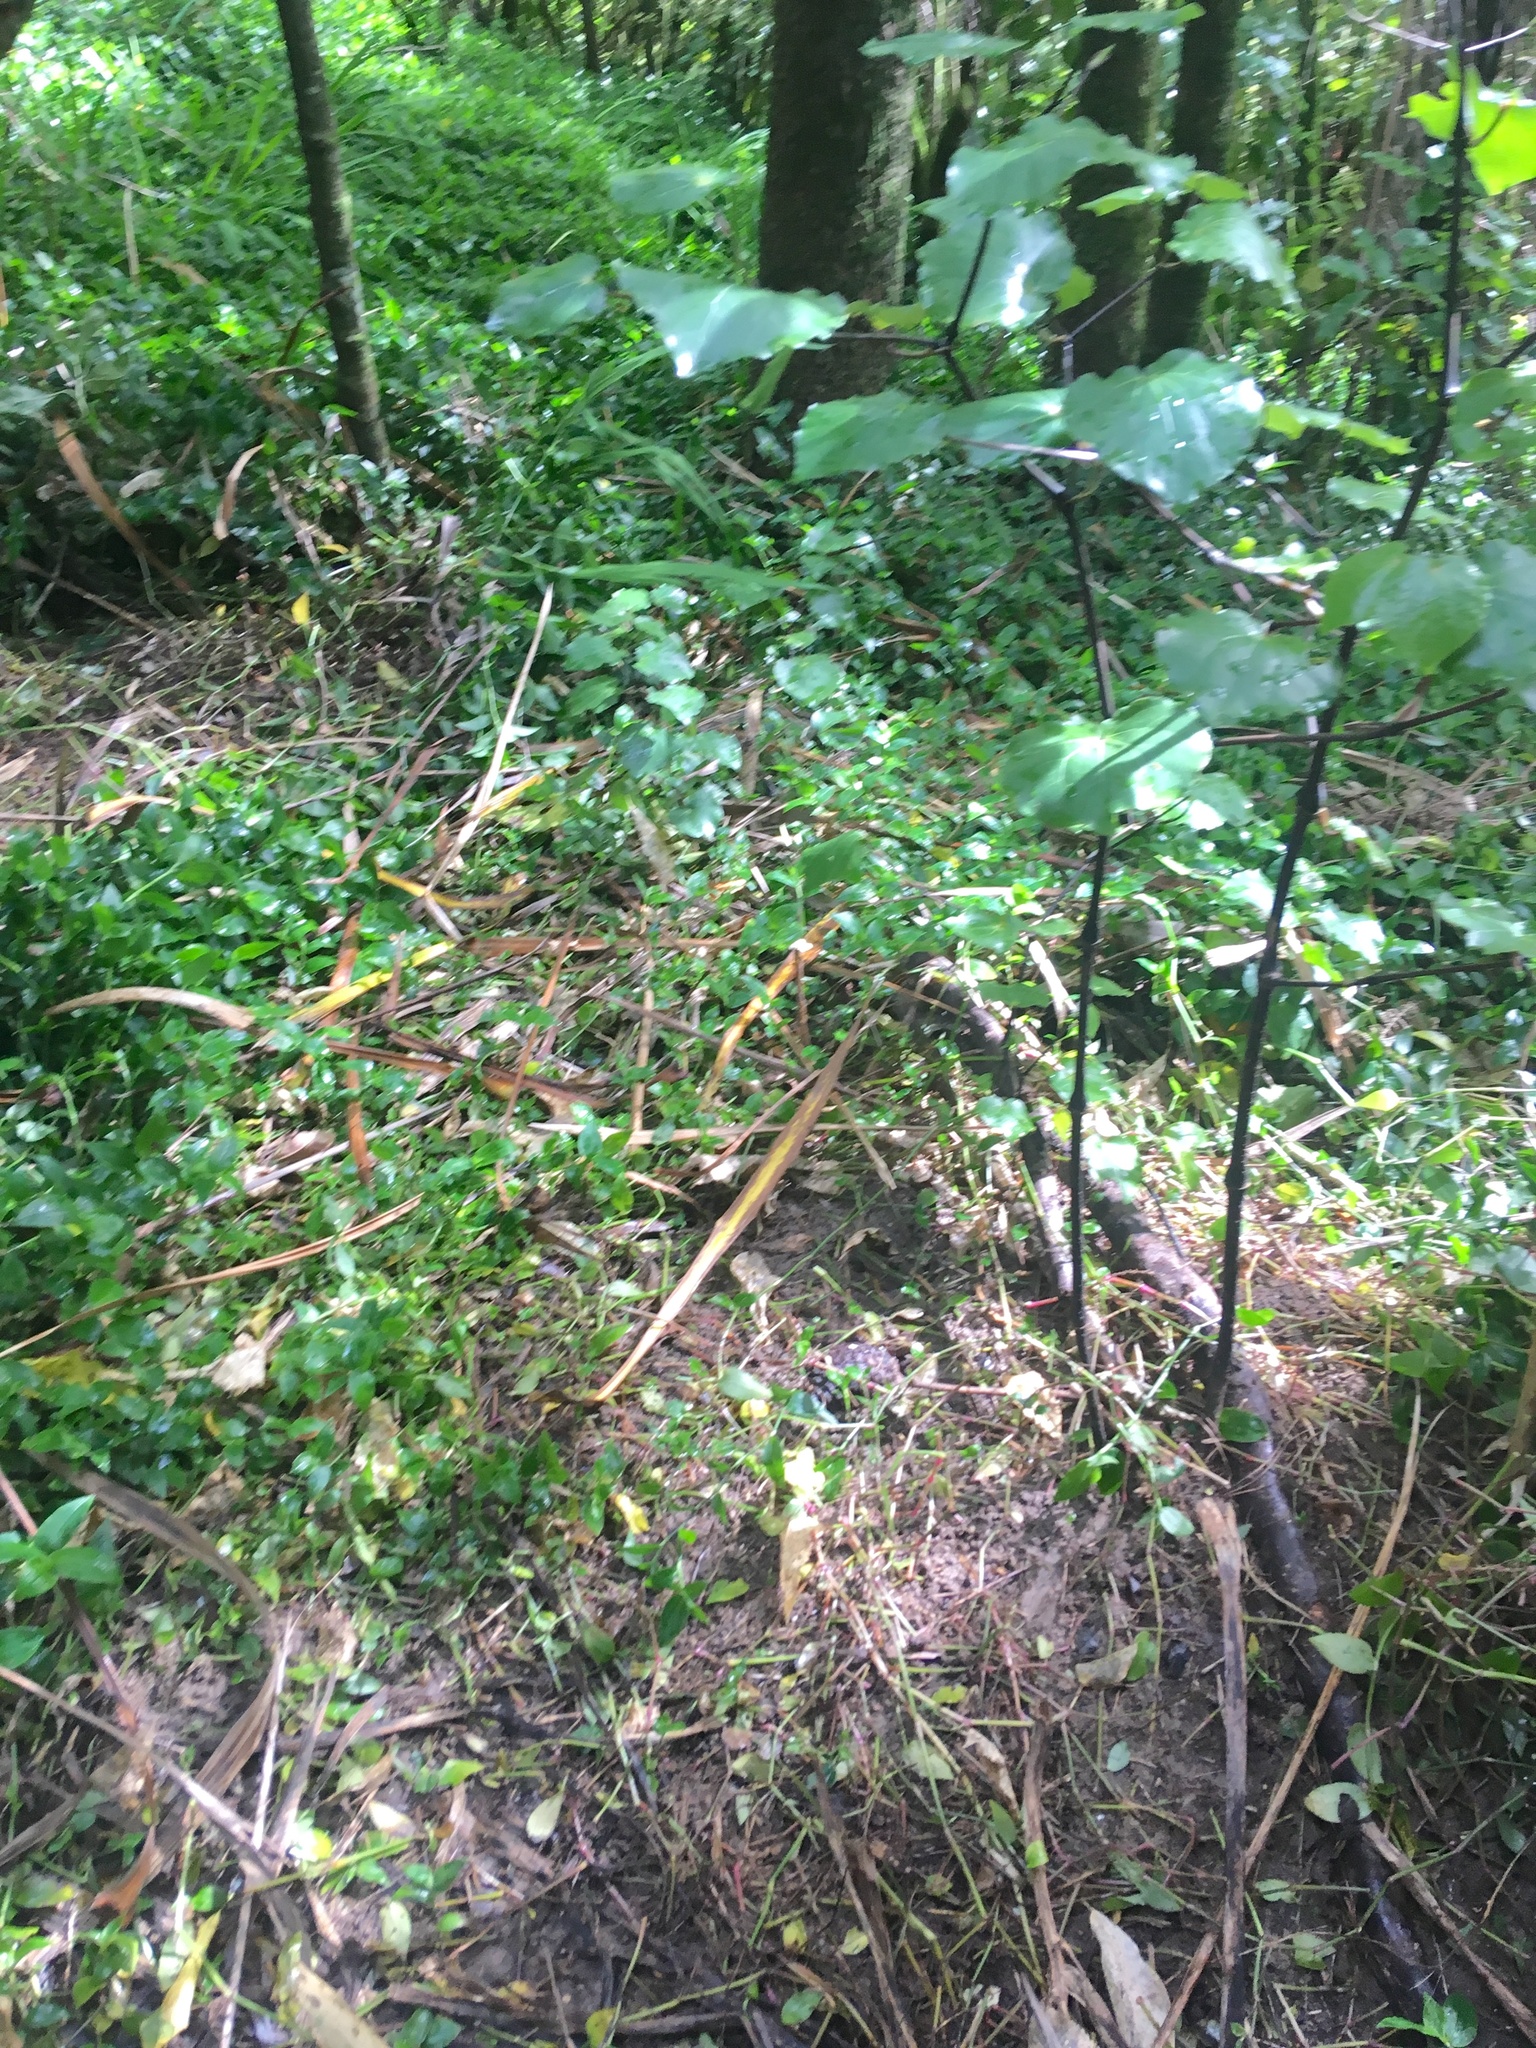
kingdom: Plantae
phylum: Tracheophyta
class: Magnoliopsida
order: Piperales
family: Piperaceae
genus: Macropiper
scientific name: Macropiper excelsum
